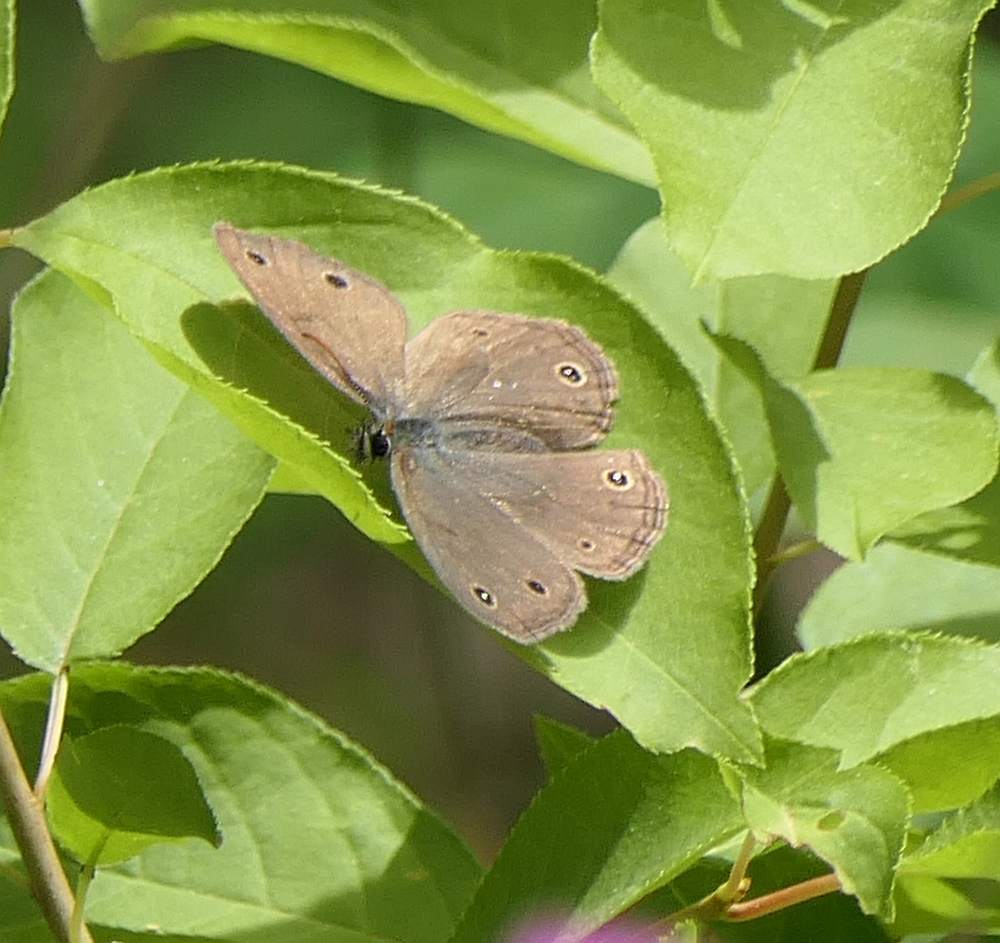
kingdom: Animalia
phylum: Arthropoda
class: Insecta
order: Lepidoptera
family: Nymphalidae
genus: Euptychia
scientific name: Euptychia cymela
